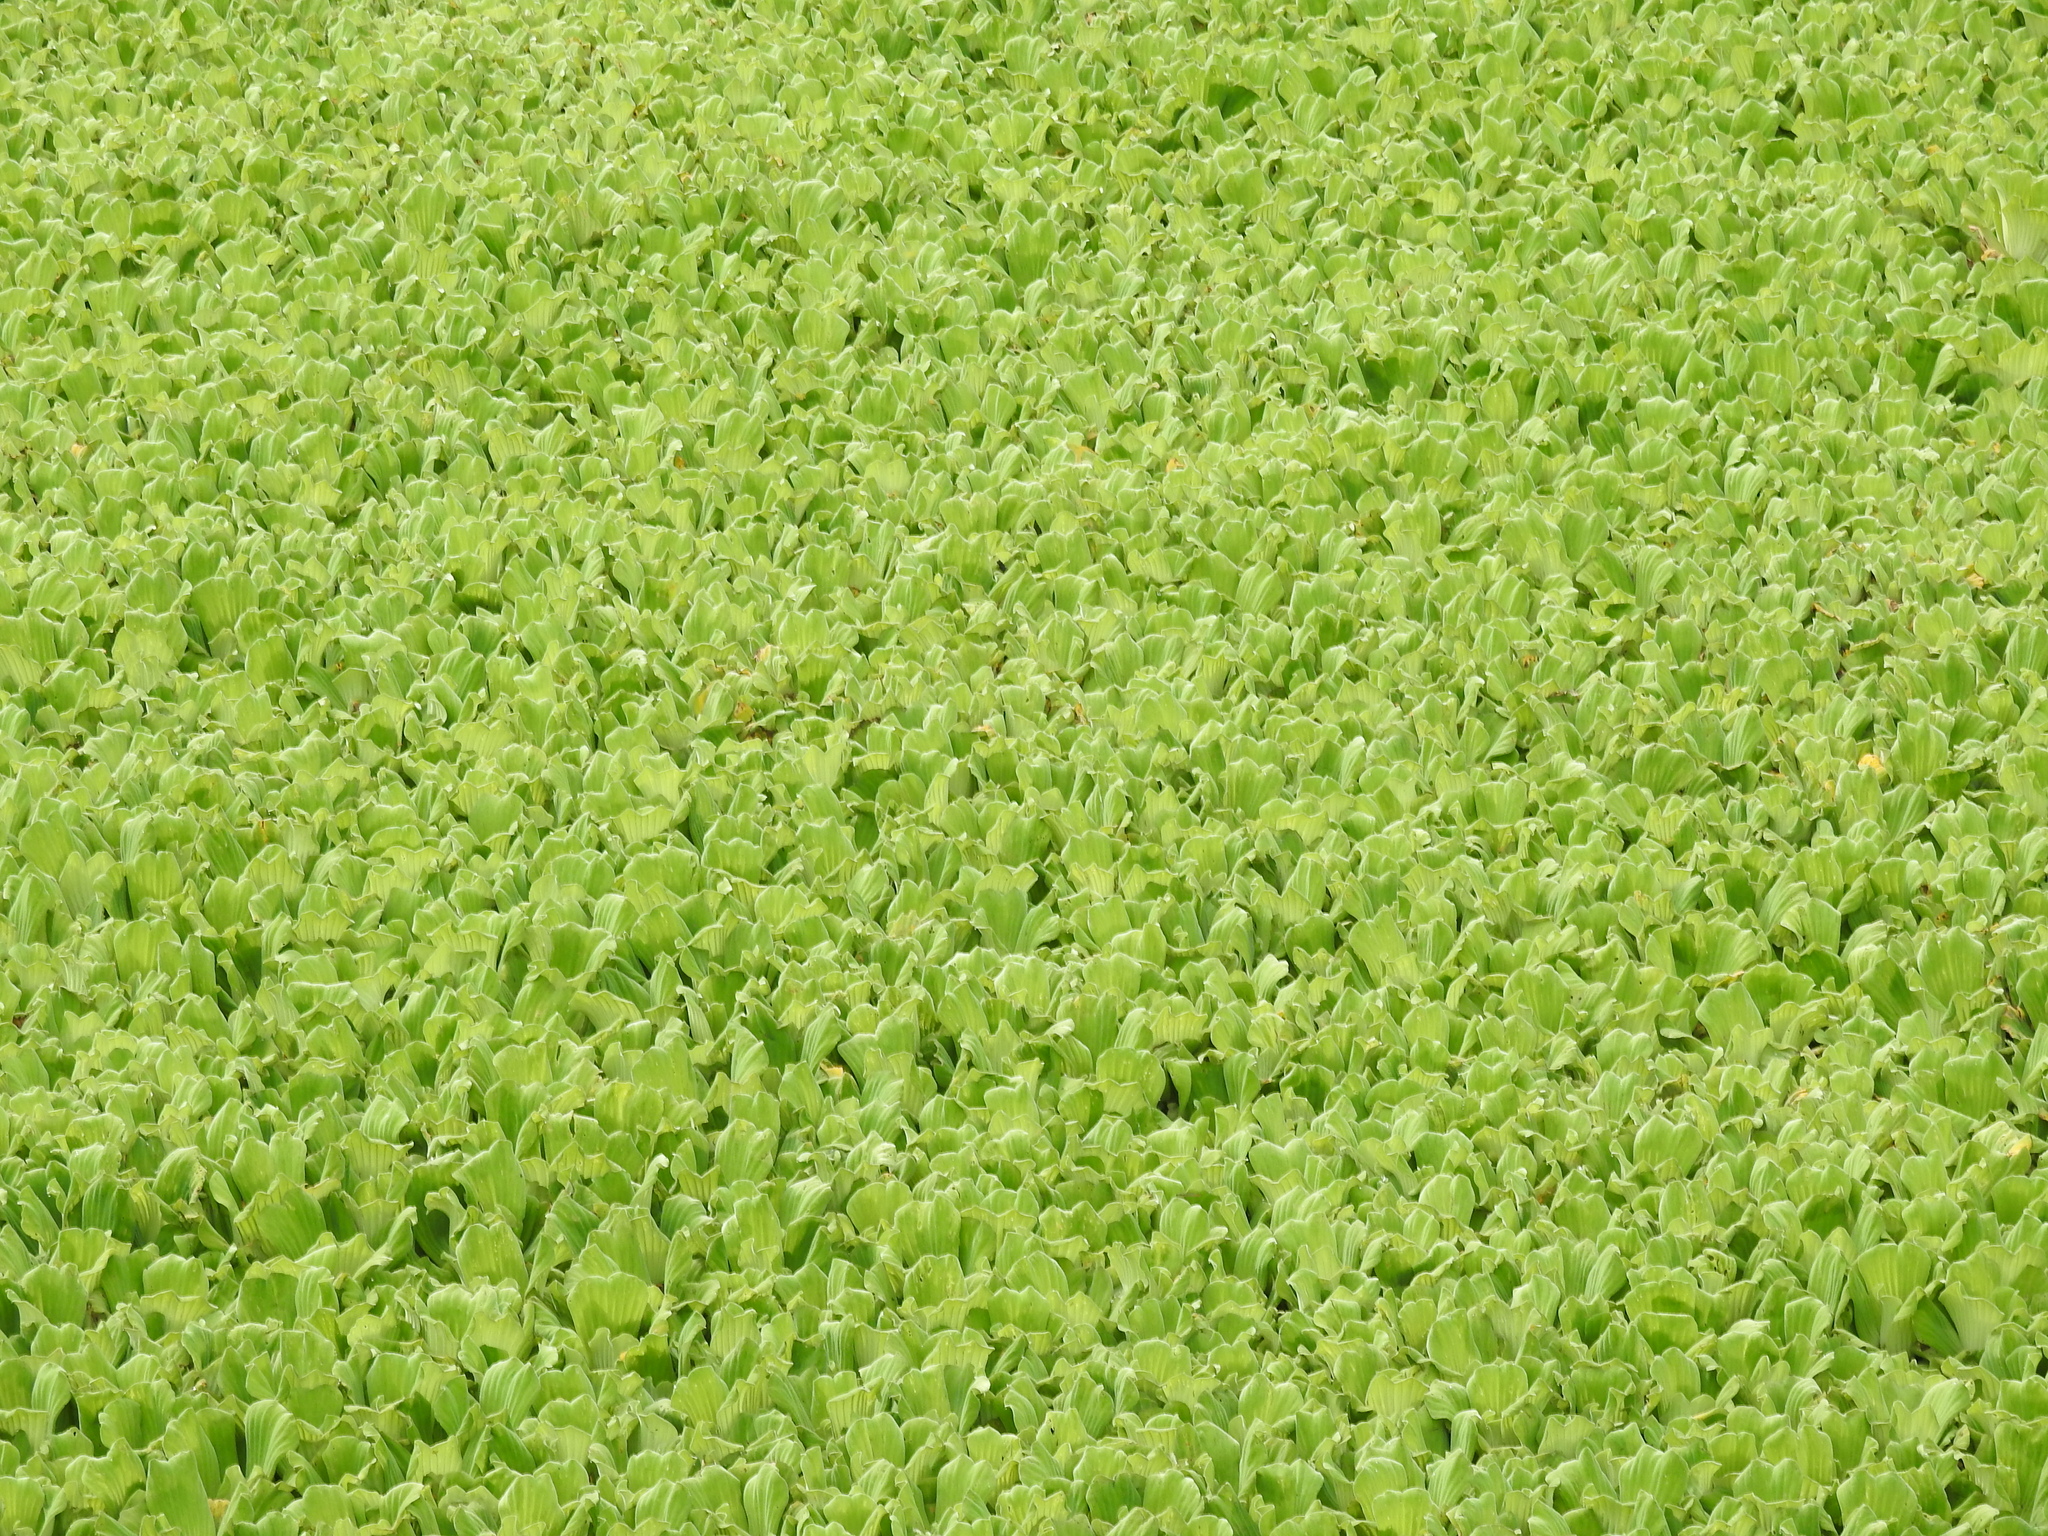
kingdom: Plantae
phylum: Tracheophyta
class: Liliopsida
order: Alismatales
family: Araceae
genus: Pistia
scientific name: Pistia stratiotes
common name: Water lettuce
